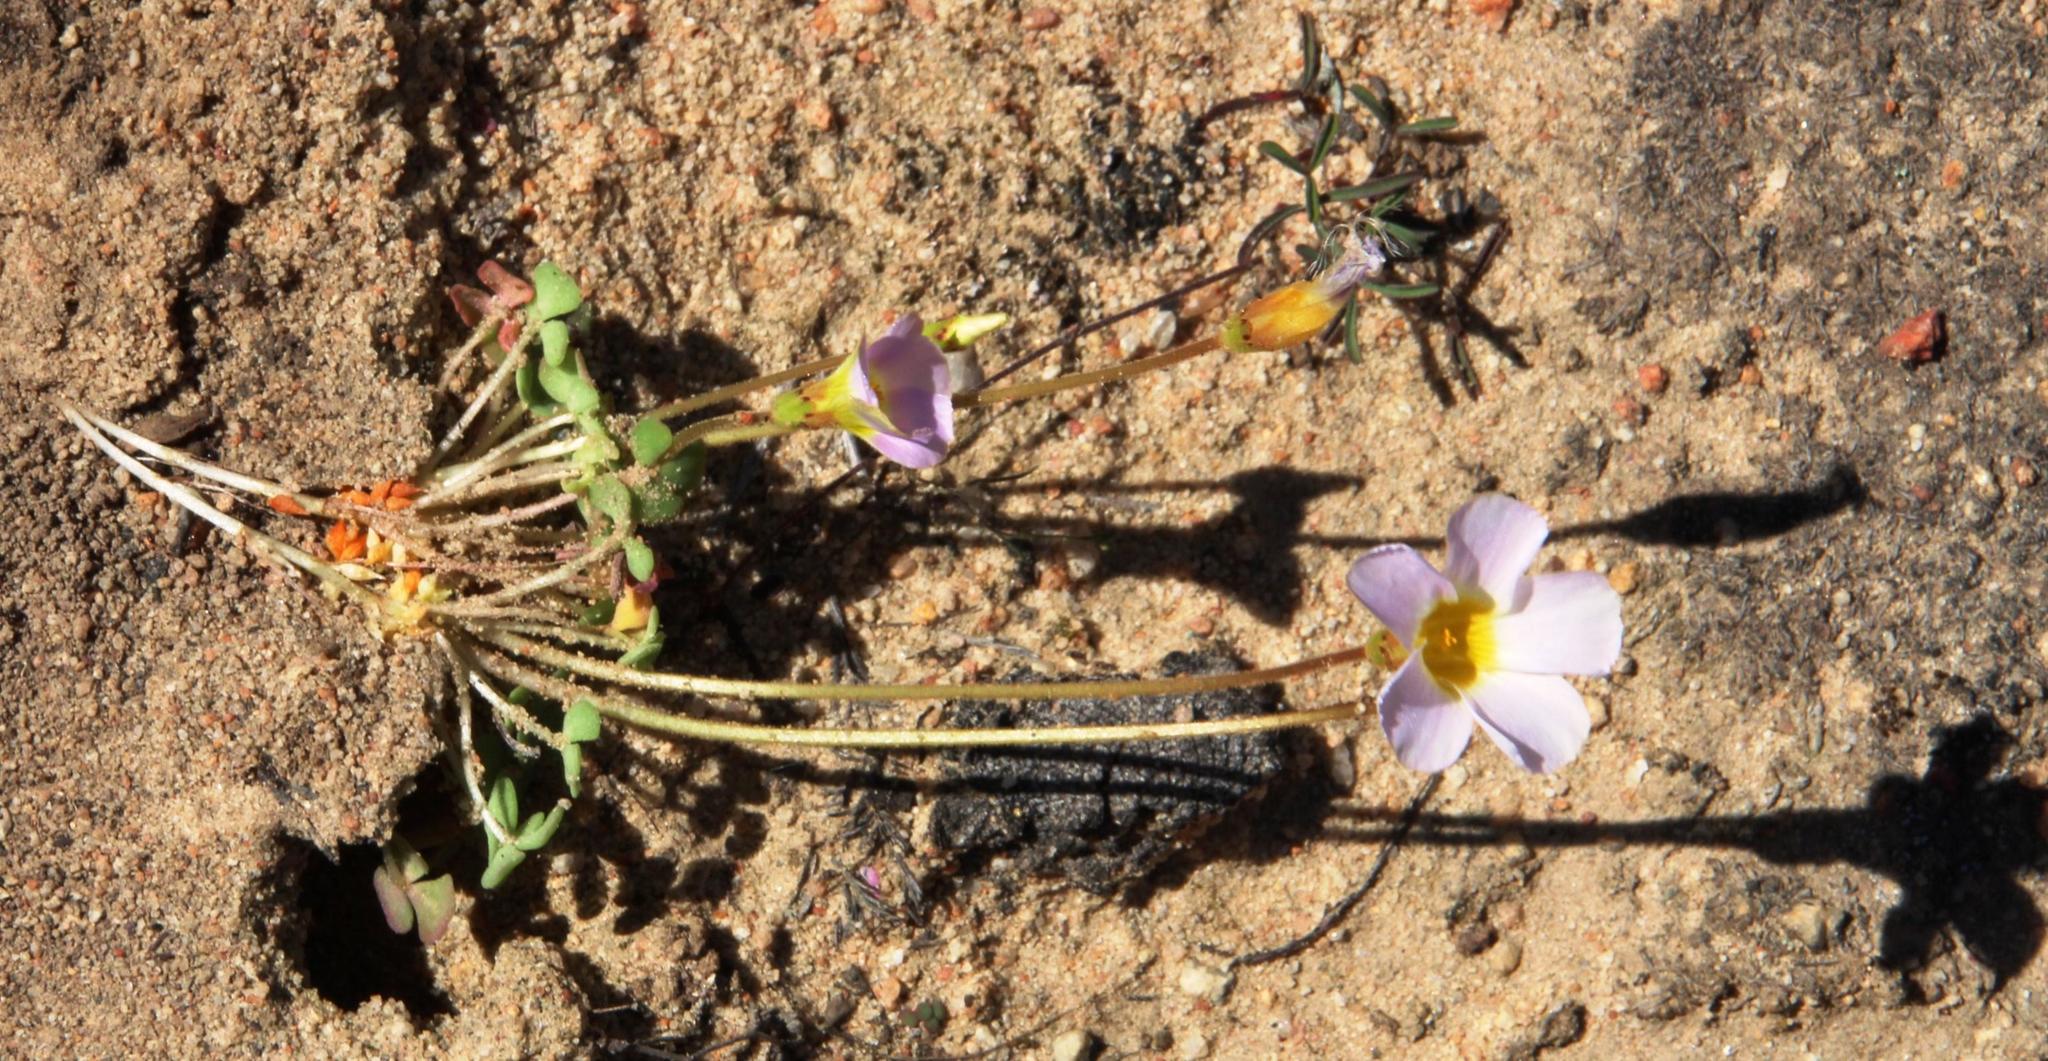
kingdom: Plantae
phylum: Tracheophyta
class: Magnoliopsida
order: Oxalidales
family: Oxalidaceae
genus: Oxalis
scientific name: Oxalis fergusoniae
